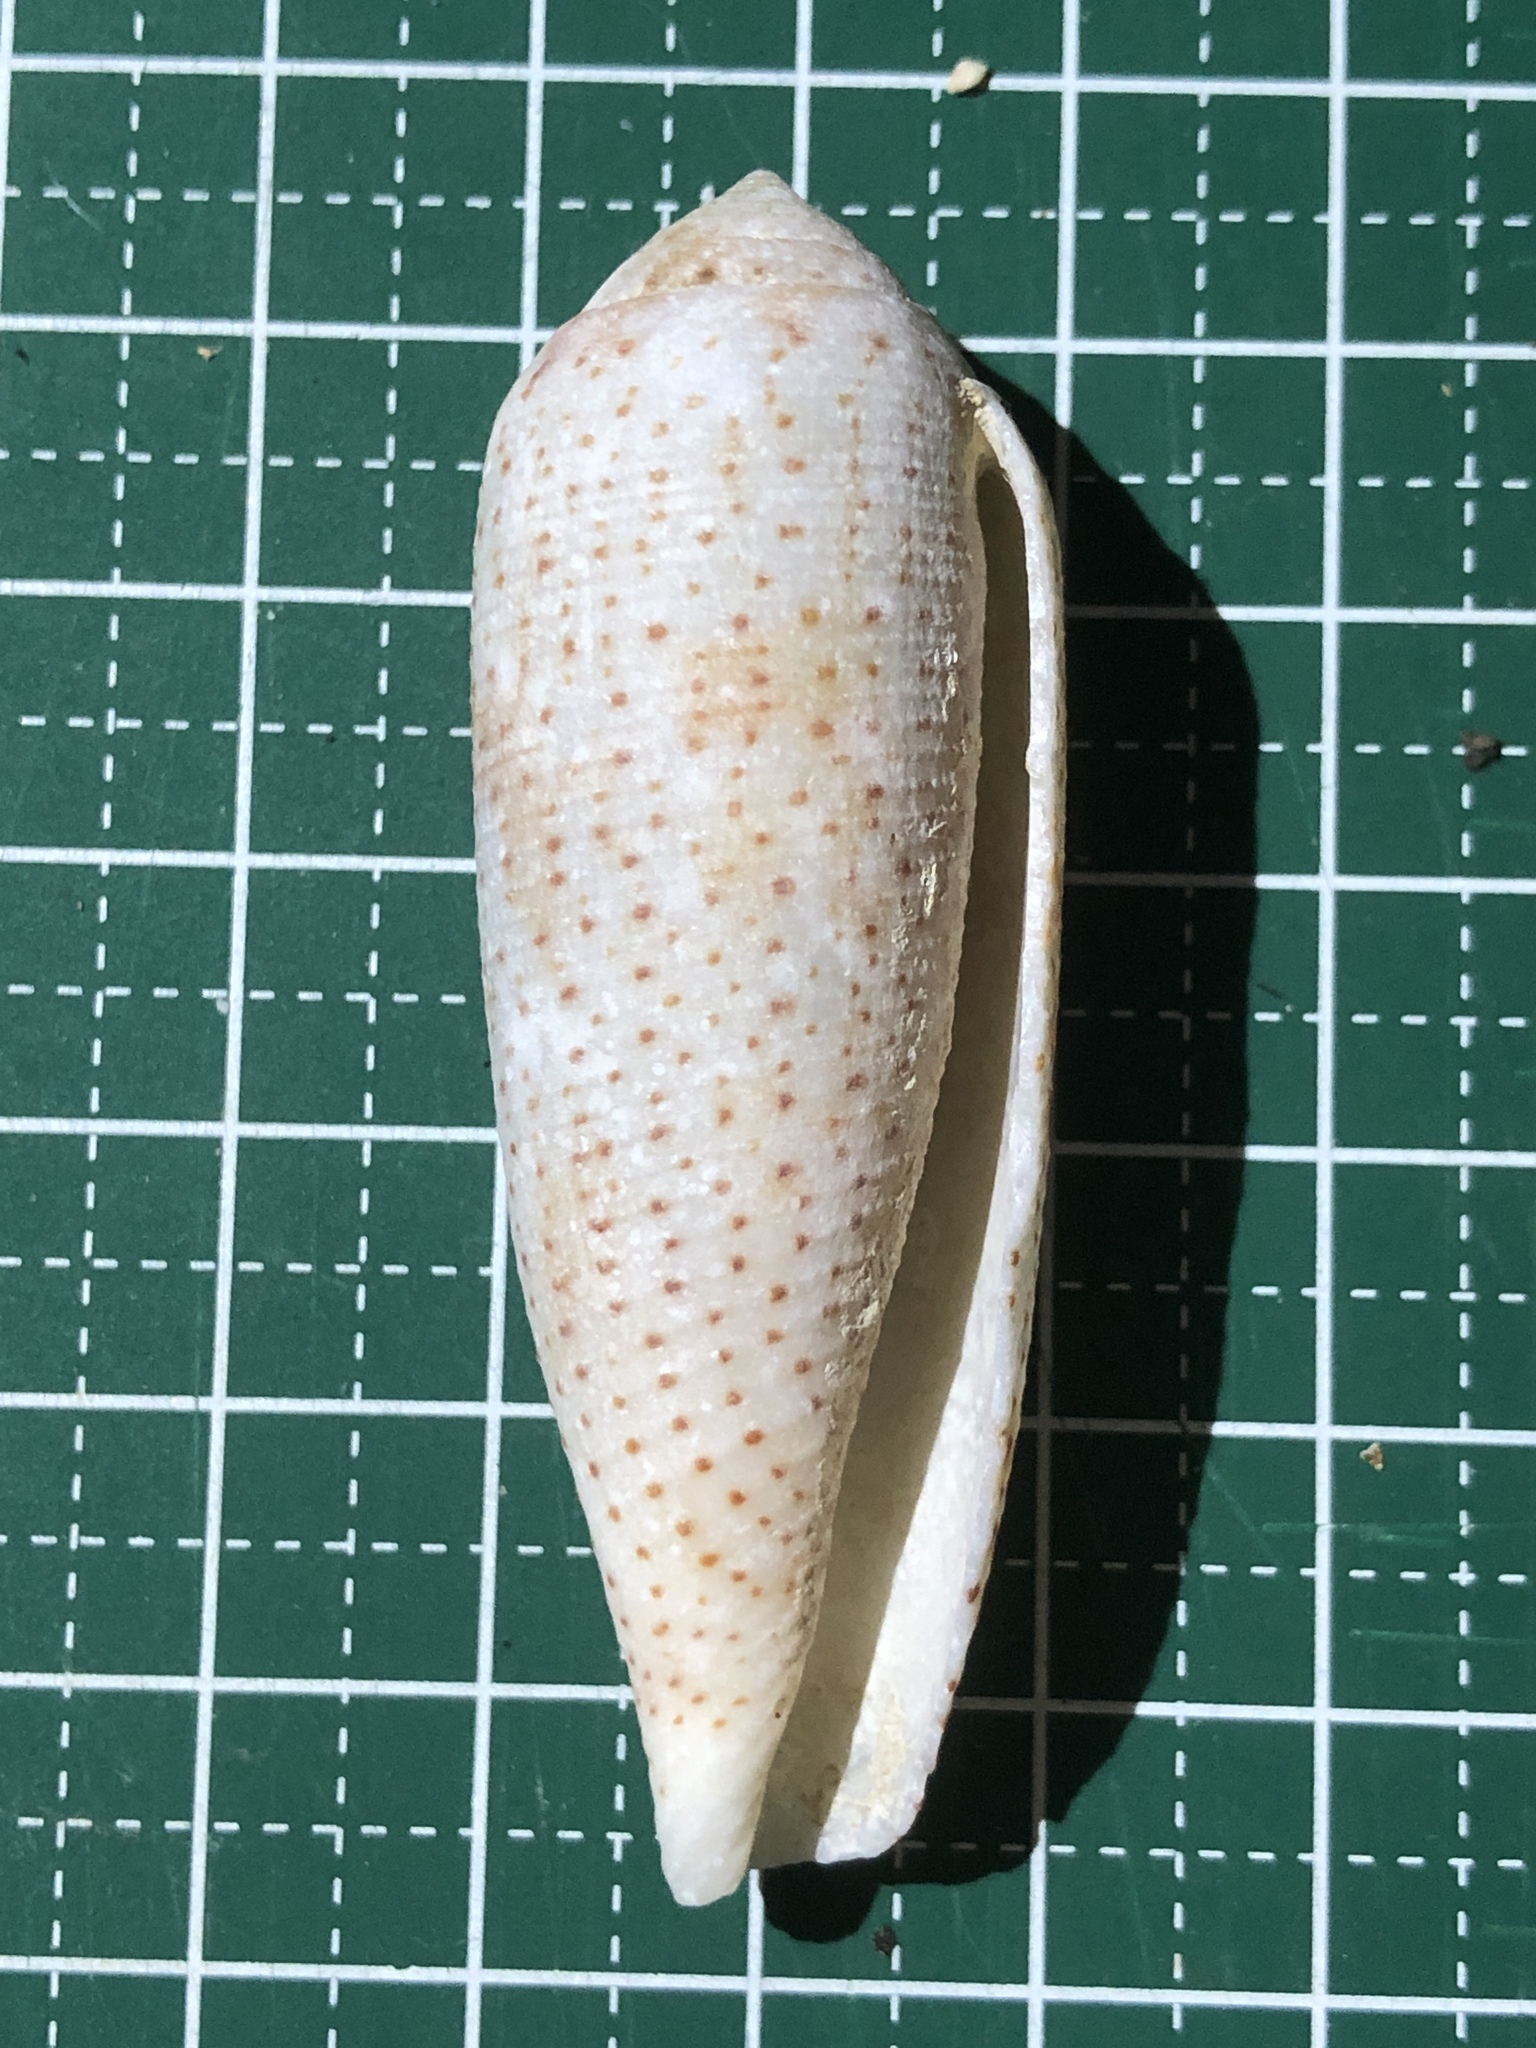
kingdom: Animalia
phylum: Mollusca
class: Gastropoda
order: Neogastropoda
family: Conidae
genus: Conus
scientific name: Conus nussatella
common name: Nussatella cone
